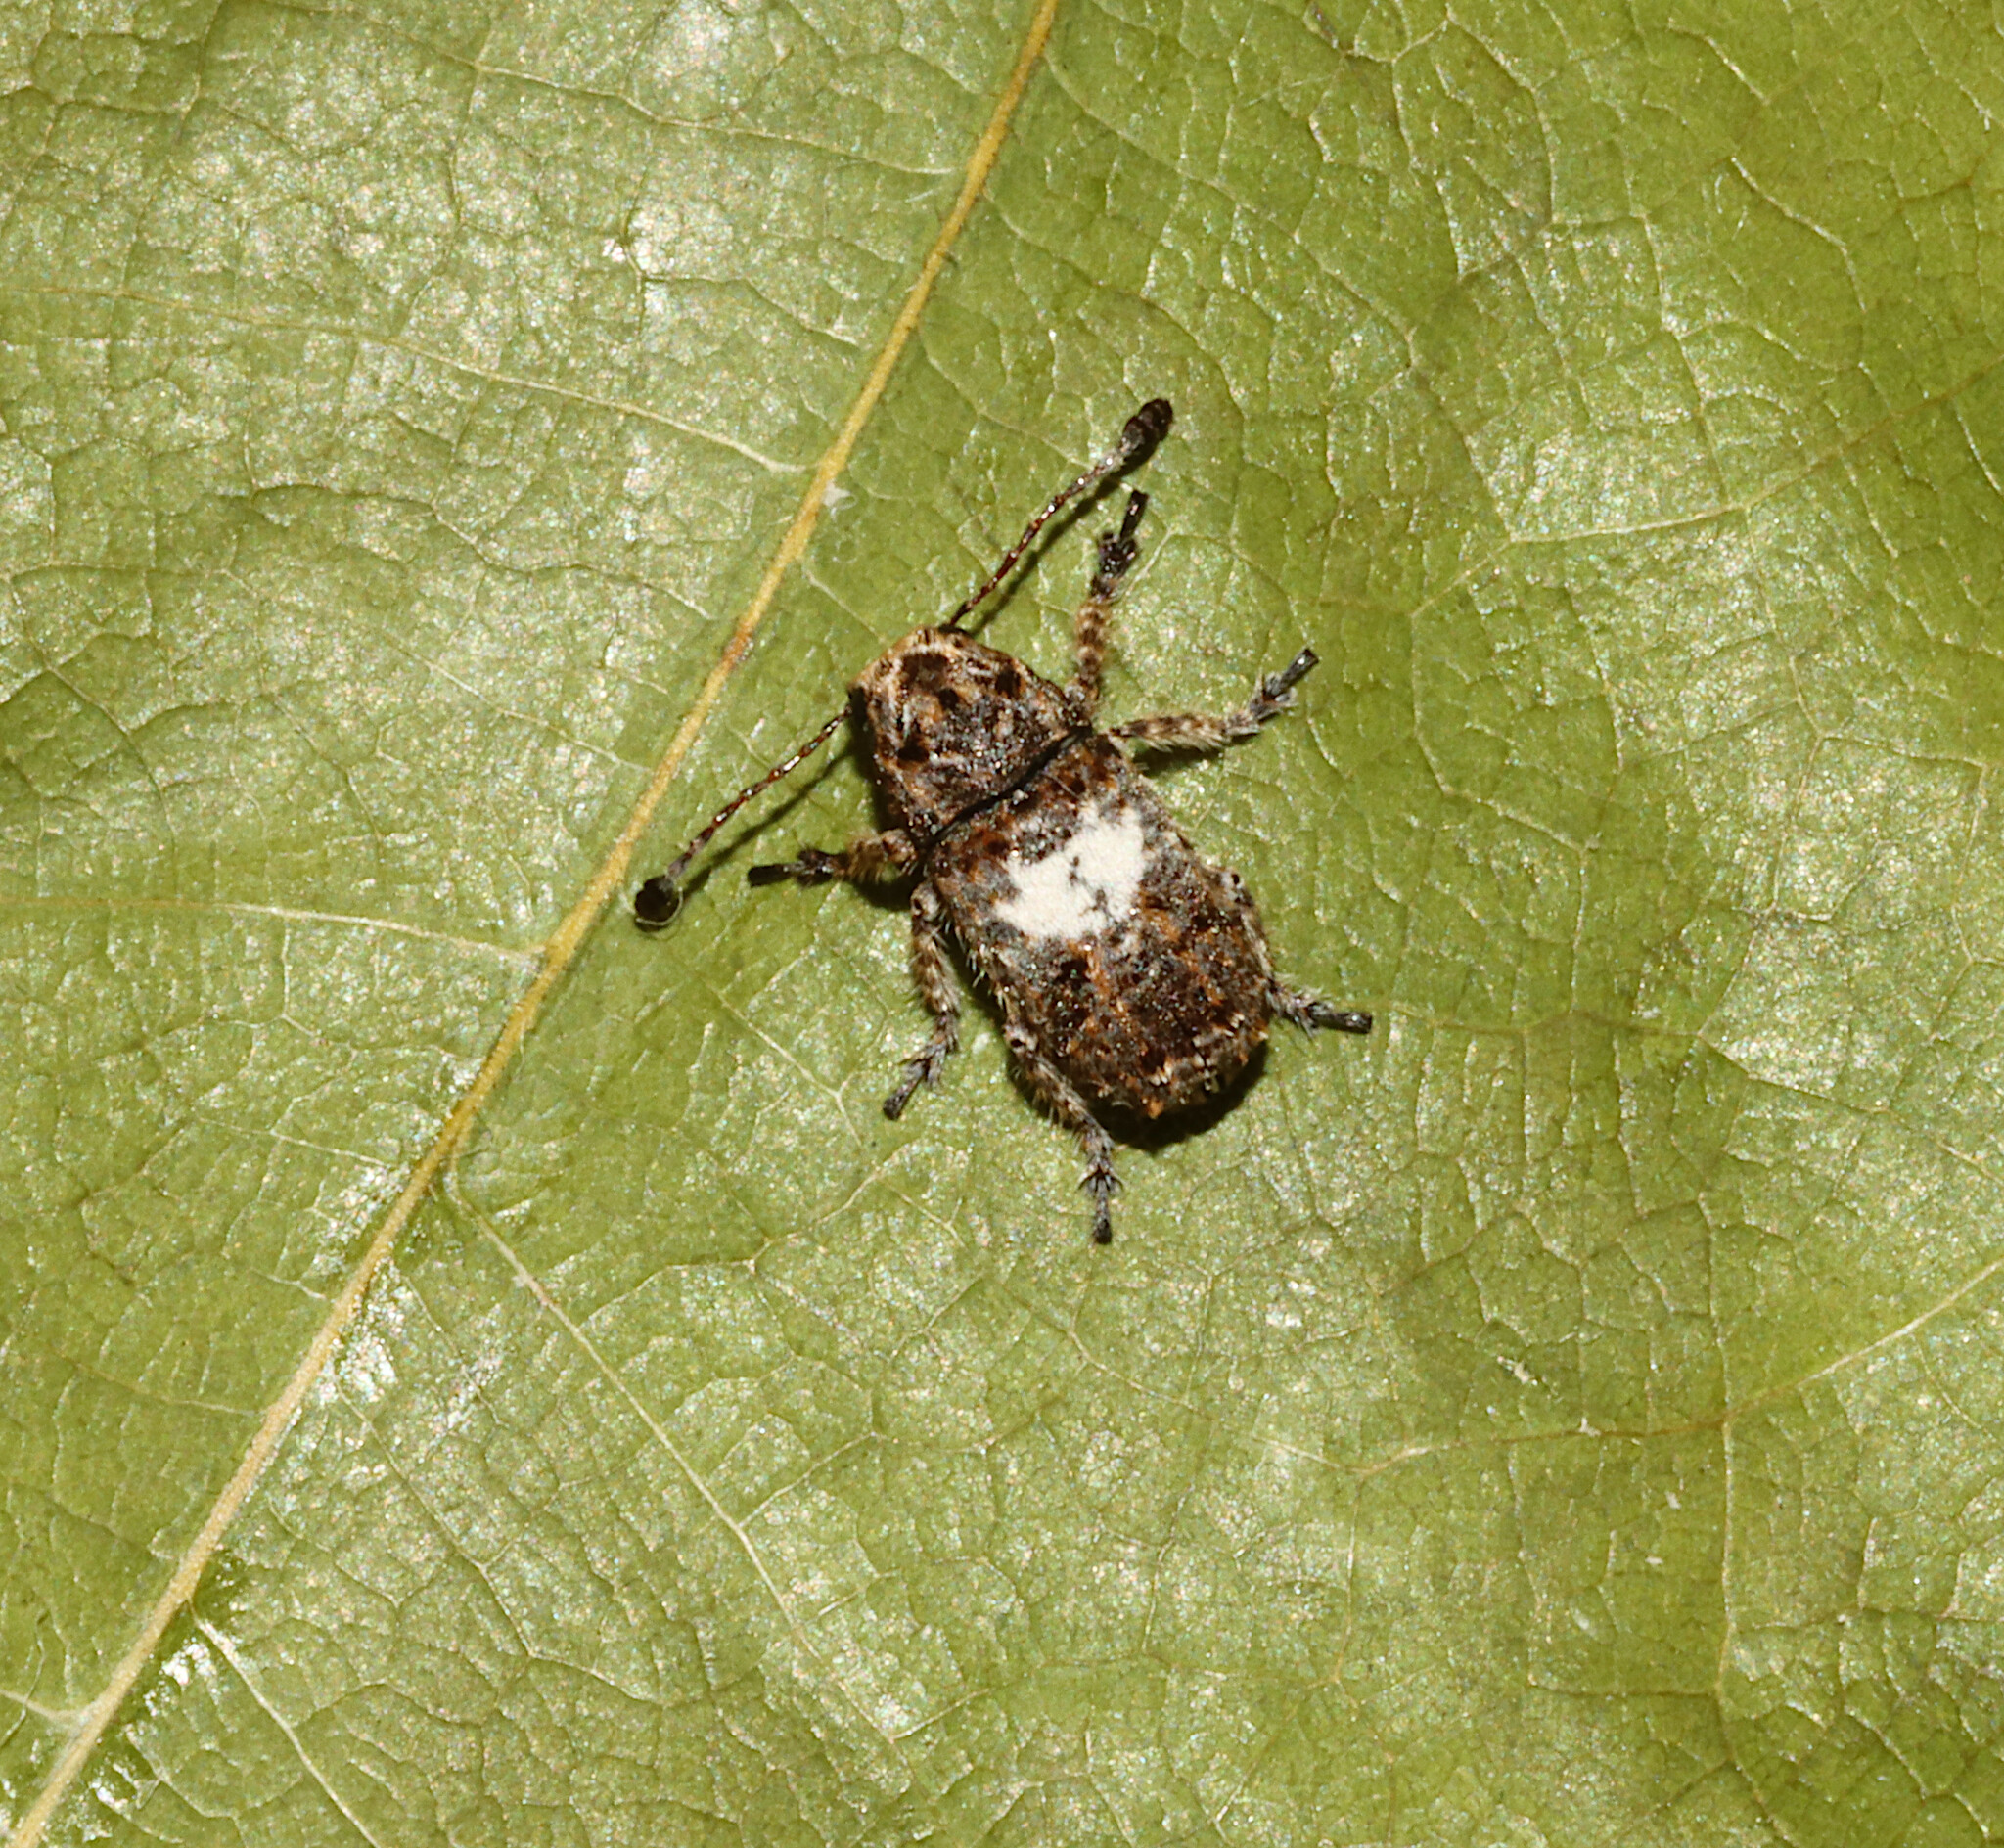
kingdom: Animalia
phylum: Arthropoda
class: Insecta
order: Coleoptera
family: Anthribidae
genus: Toxonotus
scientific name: Toxonotus cornutus
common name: Fungus weevil
